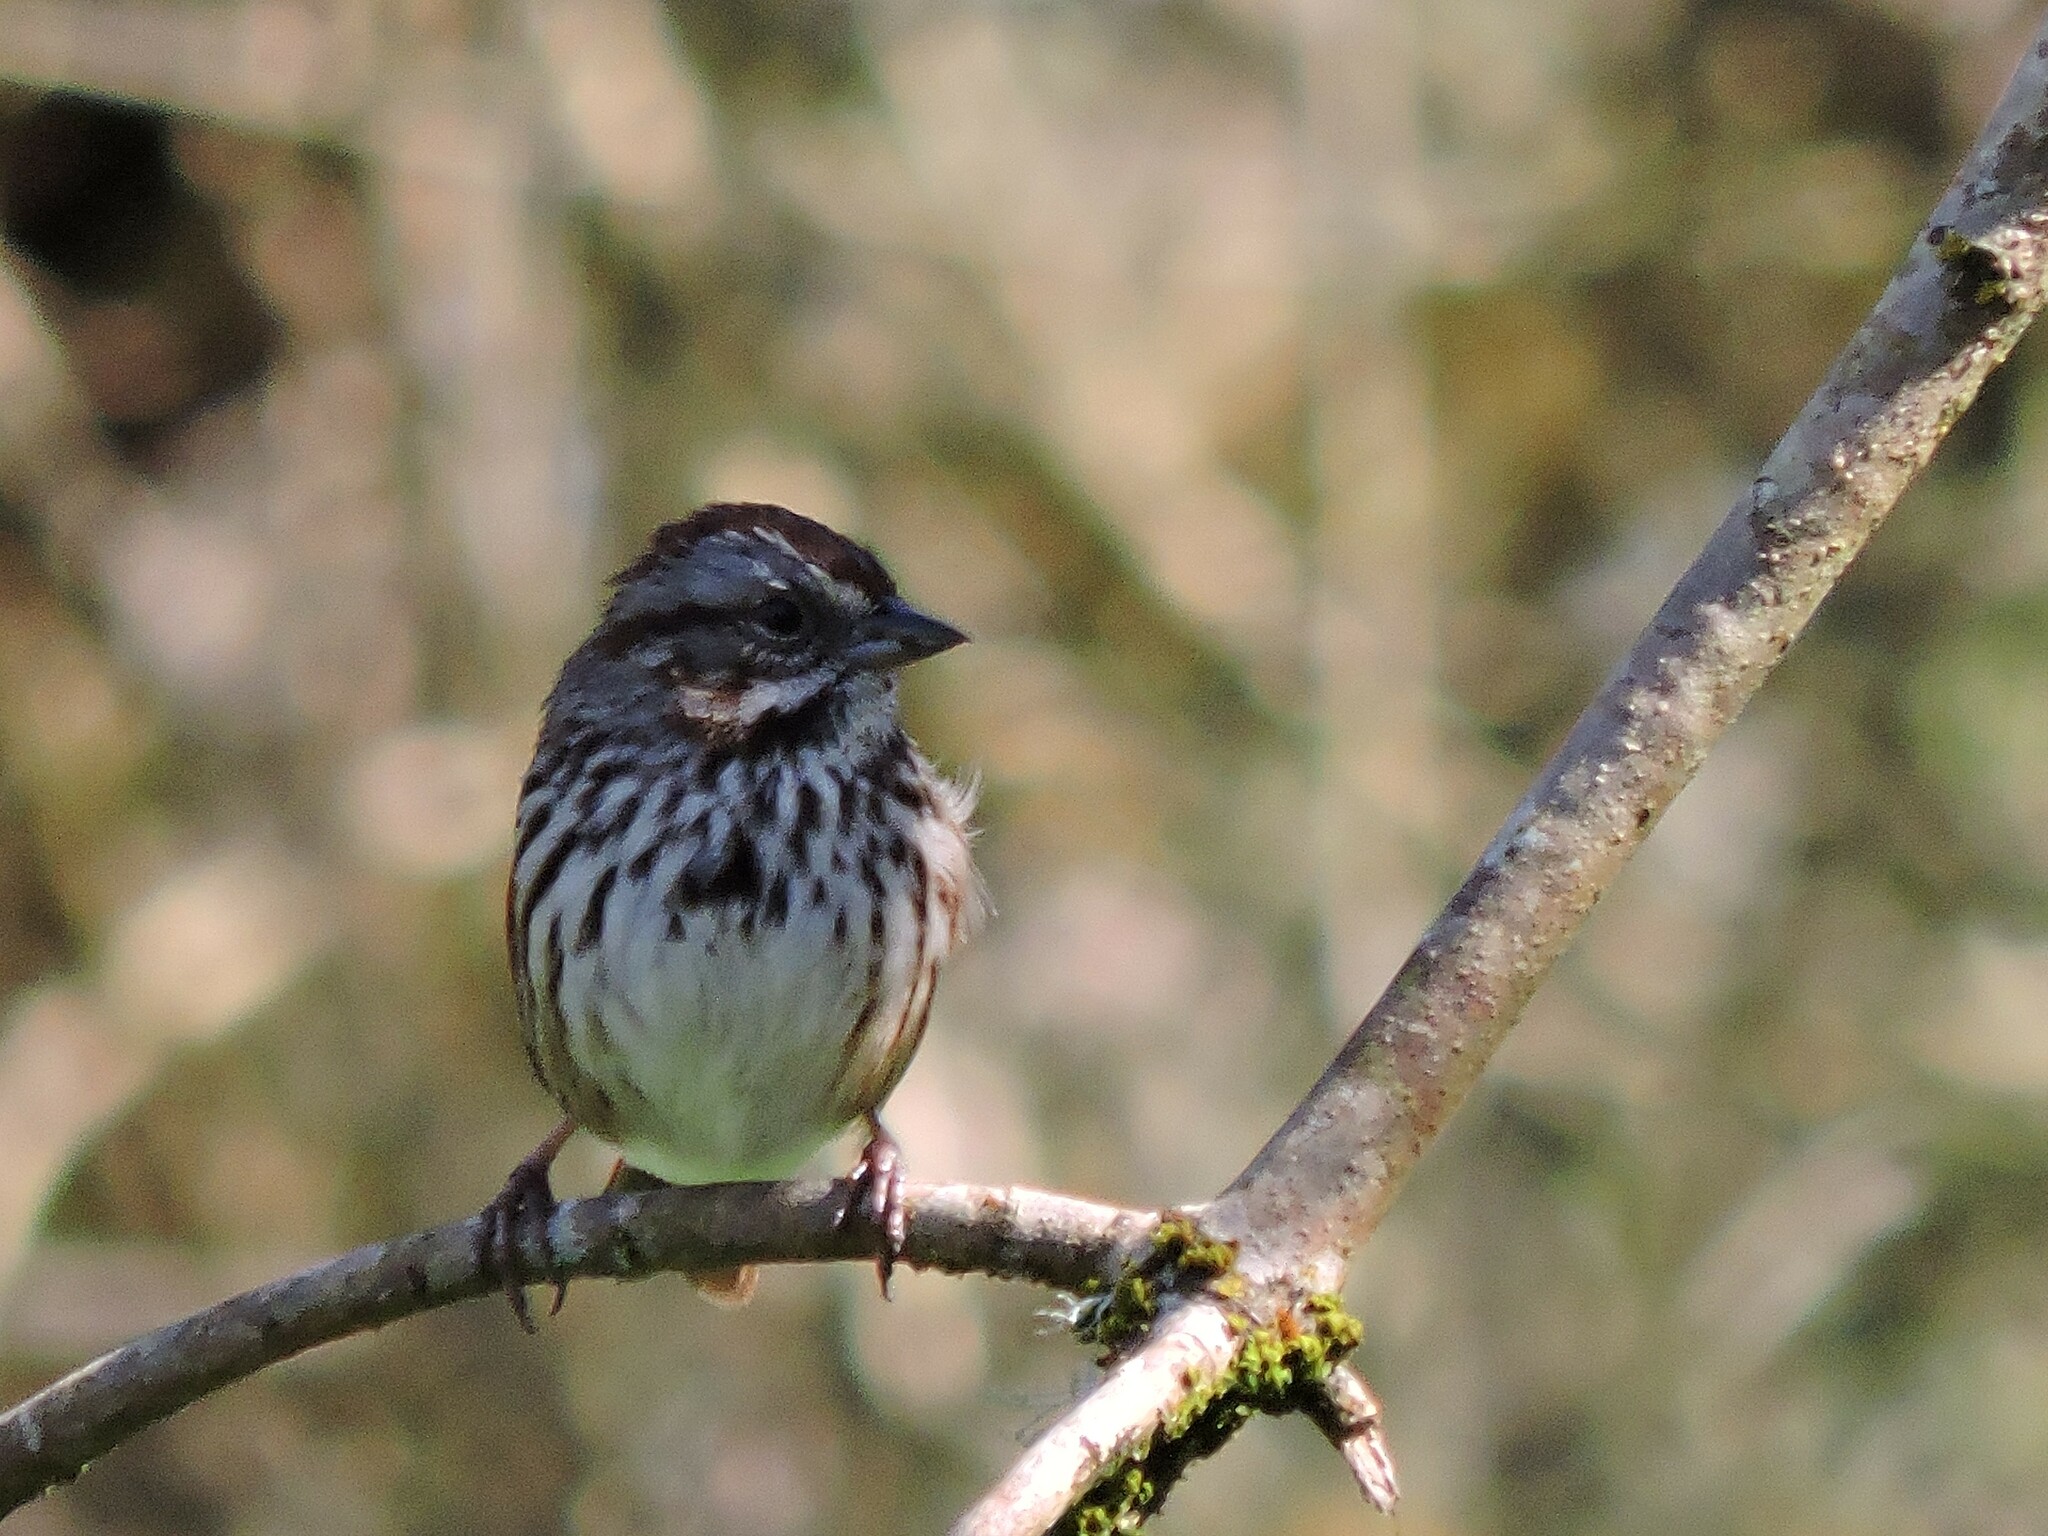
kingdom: Animalia
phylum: Chordata
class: Aves
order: Passeriformes
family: Passerellidae
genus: Melospiza
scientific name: Melospiza melodia
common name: Song sparrow
